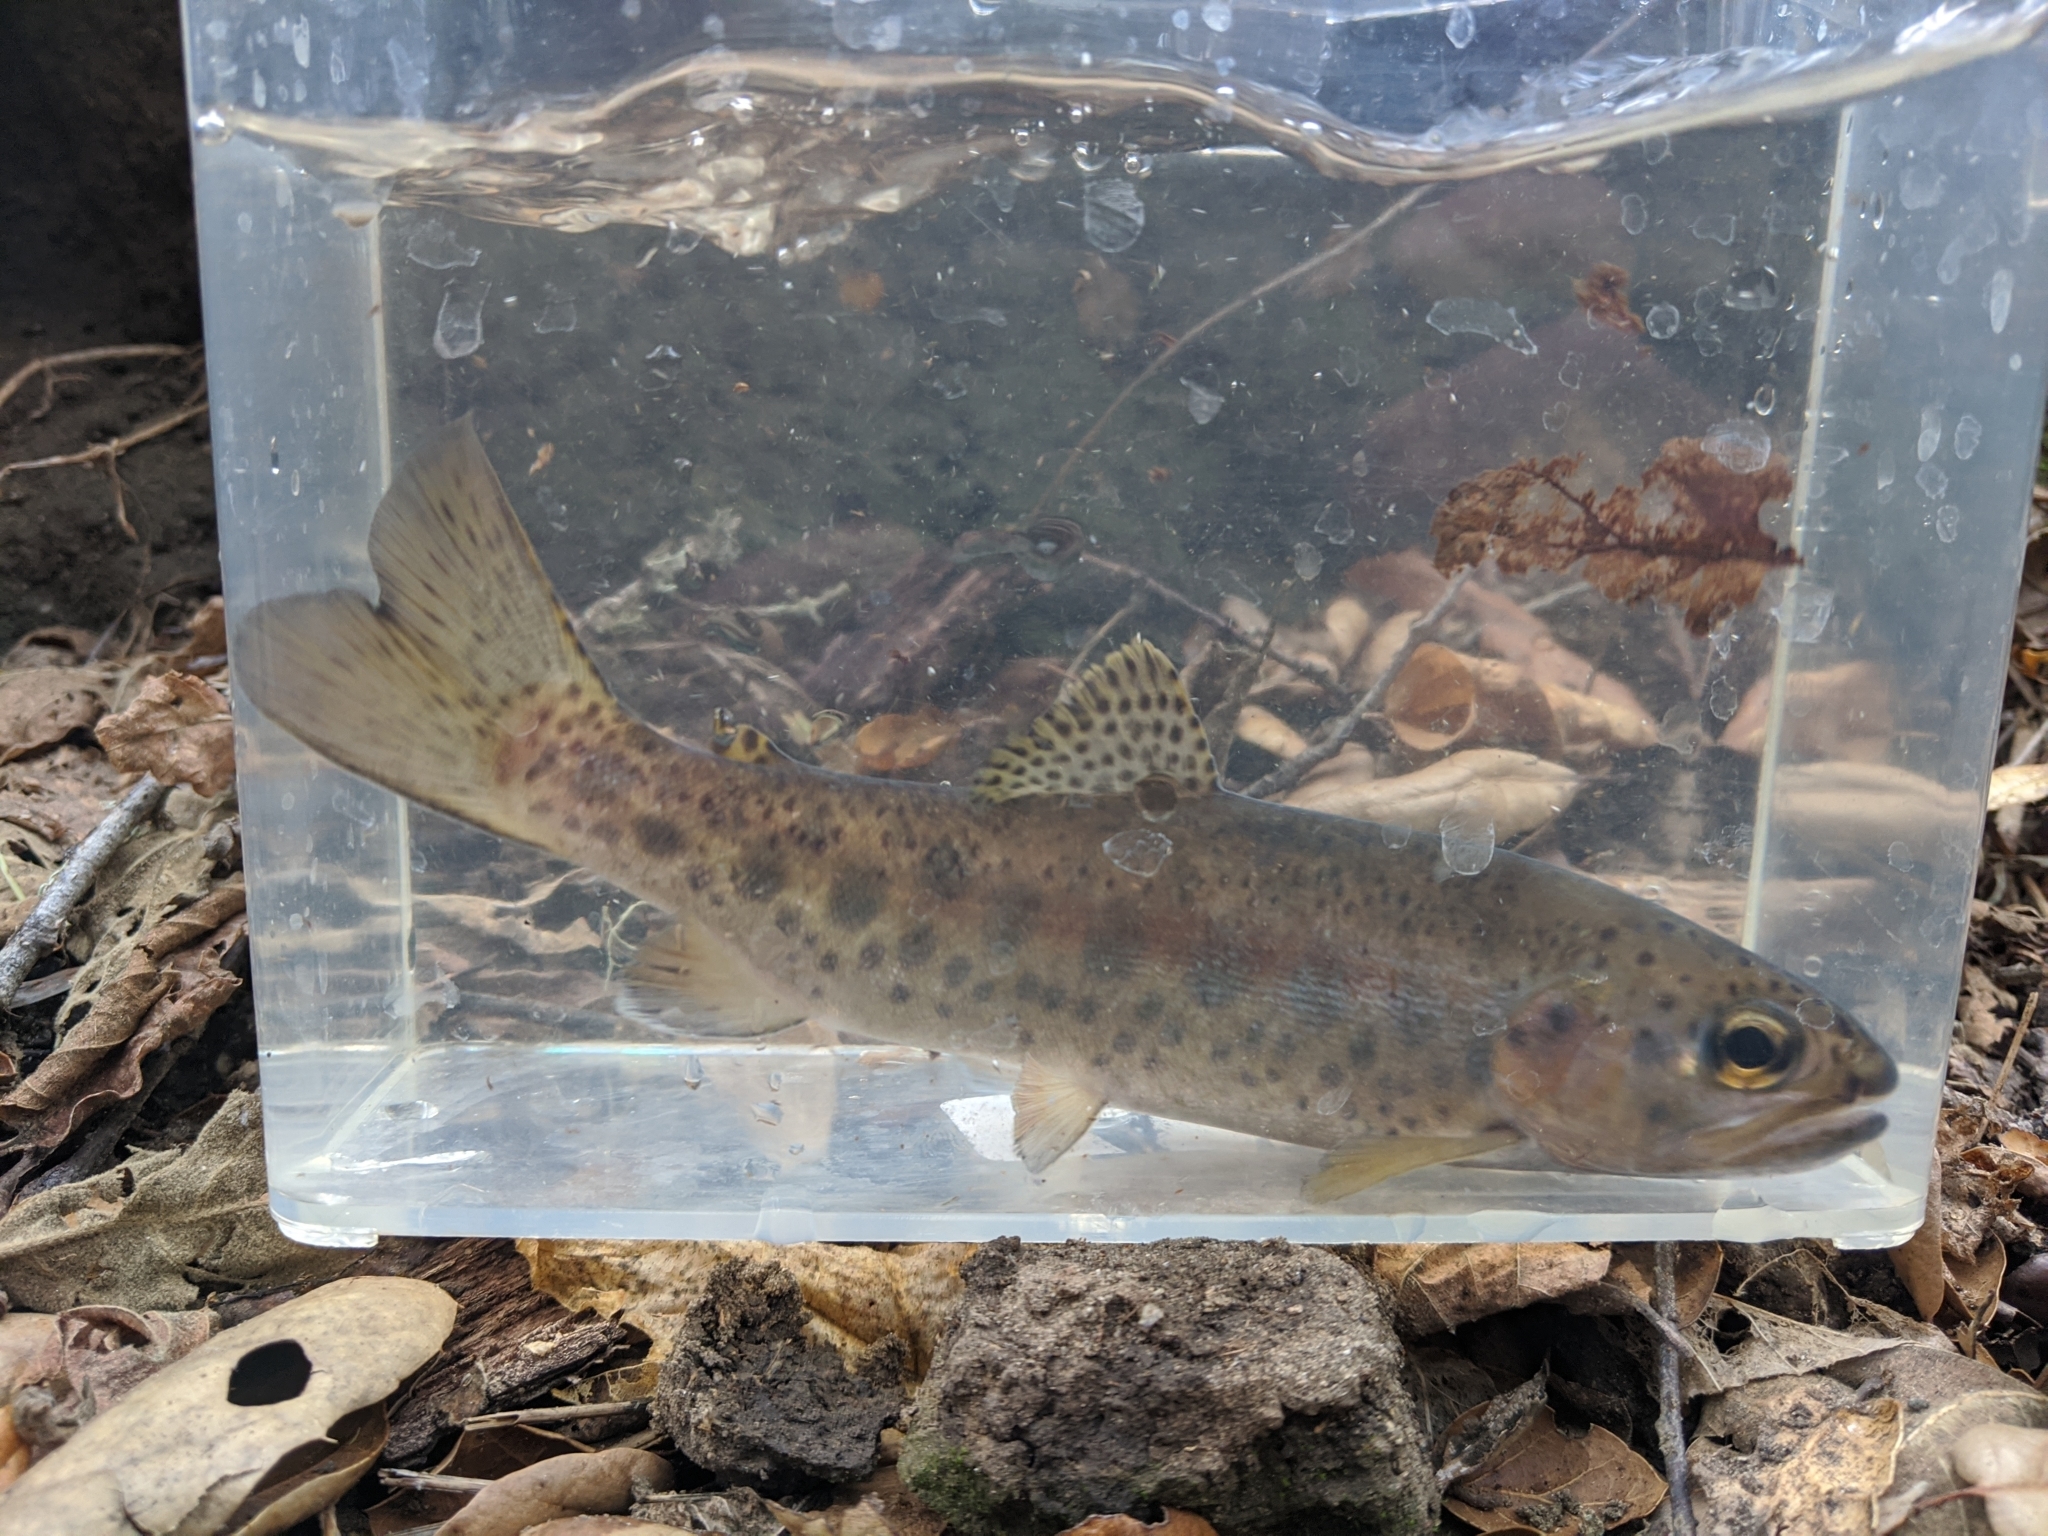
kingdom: Animalia
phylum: Chordata
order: Salmoniformes
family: Salmonidae
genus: Oncorhynchus
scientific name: Oncorhynchus mykiss
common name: Rainbow trout
